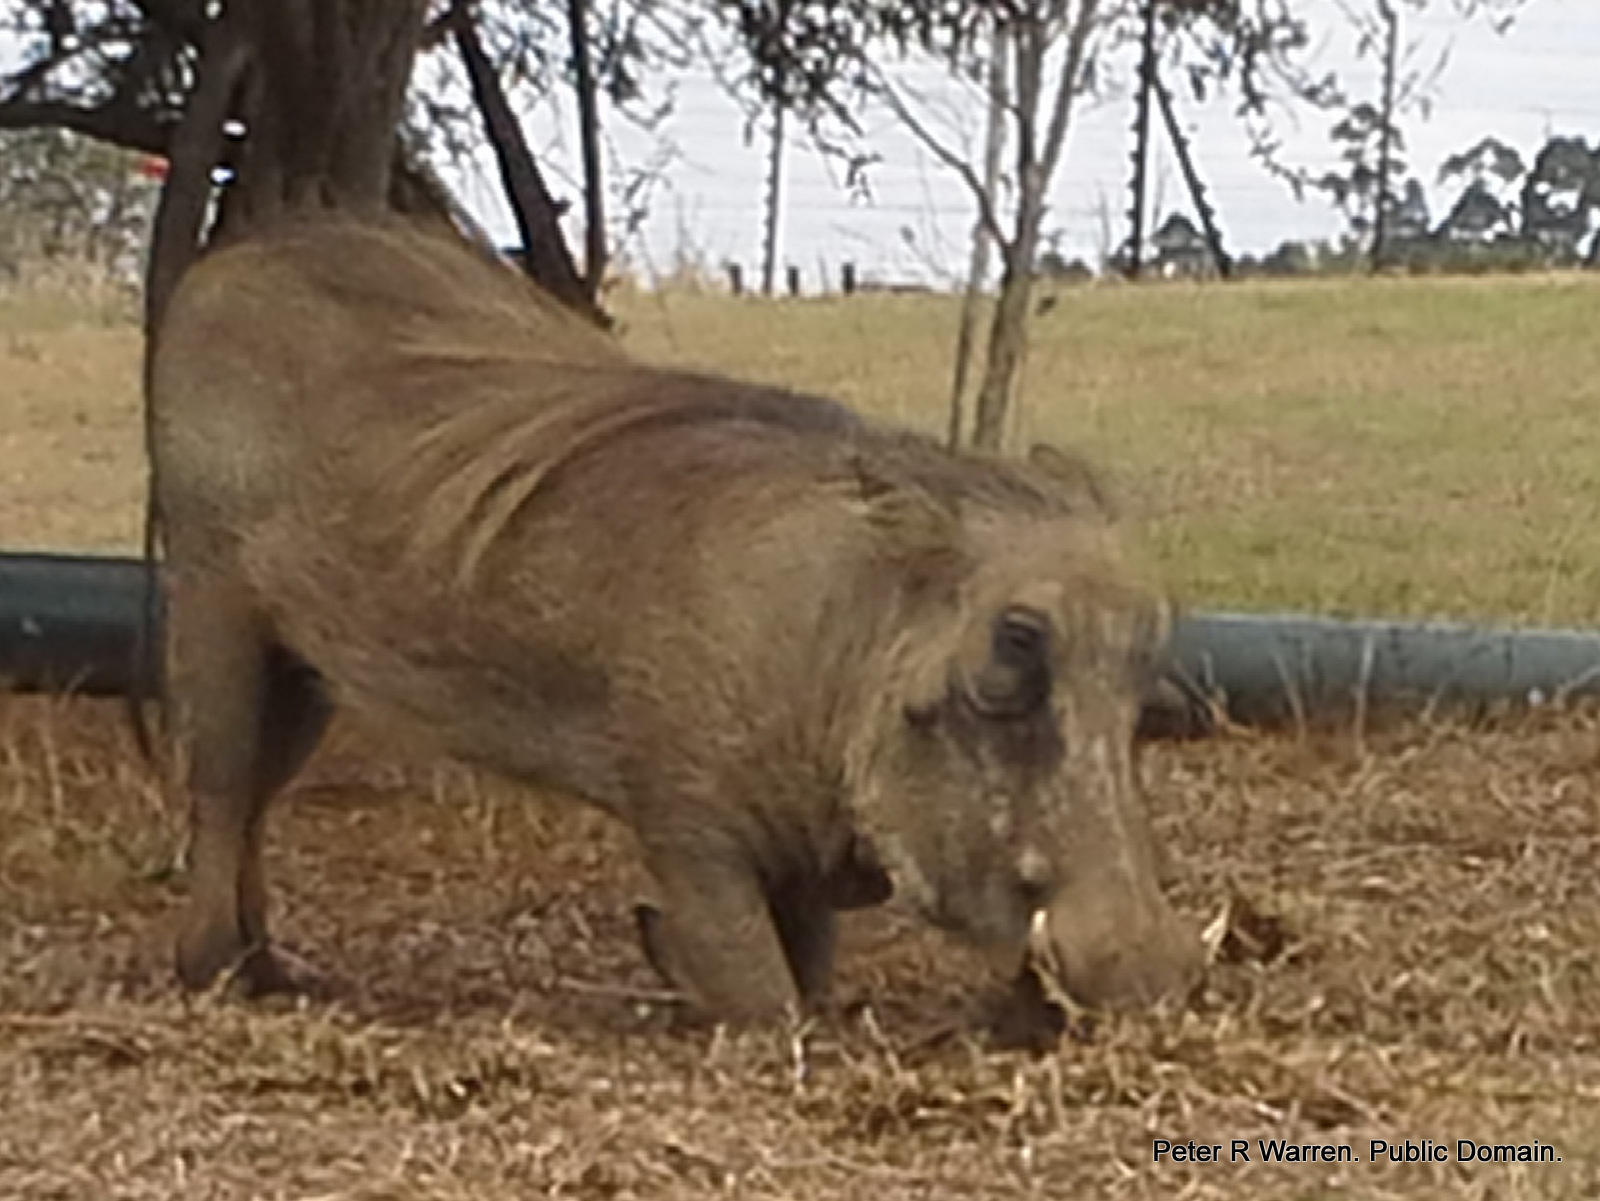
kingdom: Animalia
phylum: Chordata
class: Mammalia
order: Artiodactyla
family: Suidae
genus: Phacochoerus
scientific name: Phacochoerus africanus
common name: Common warthog
